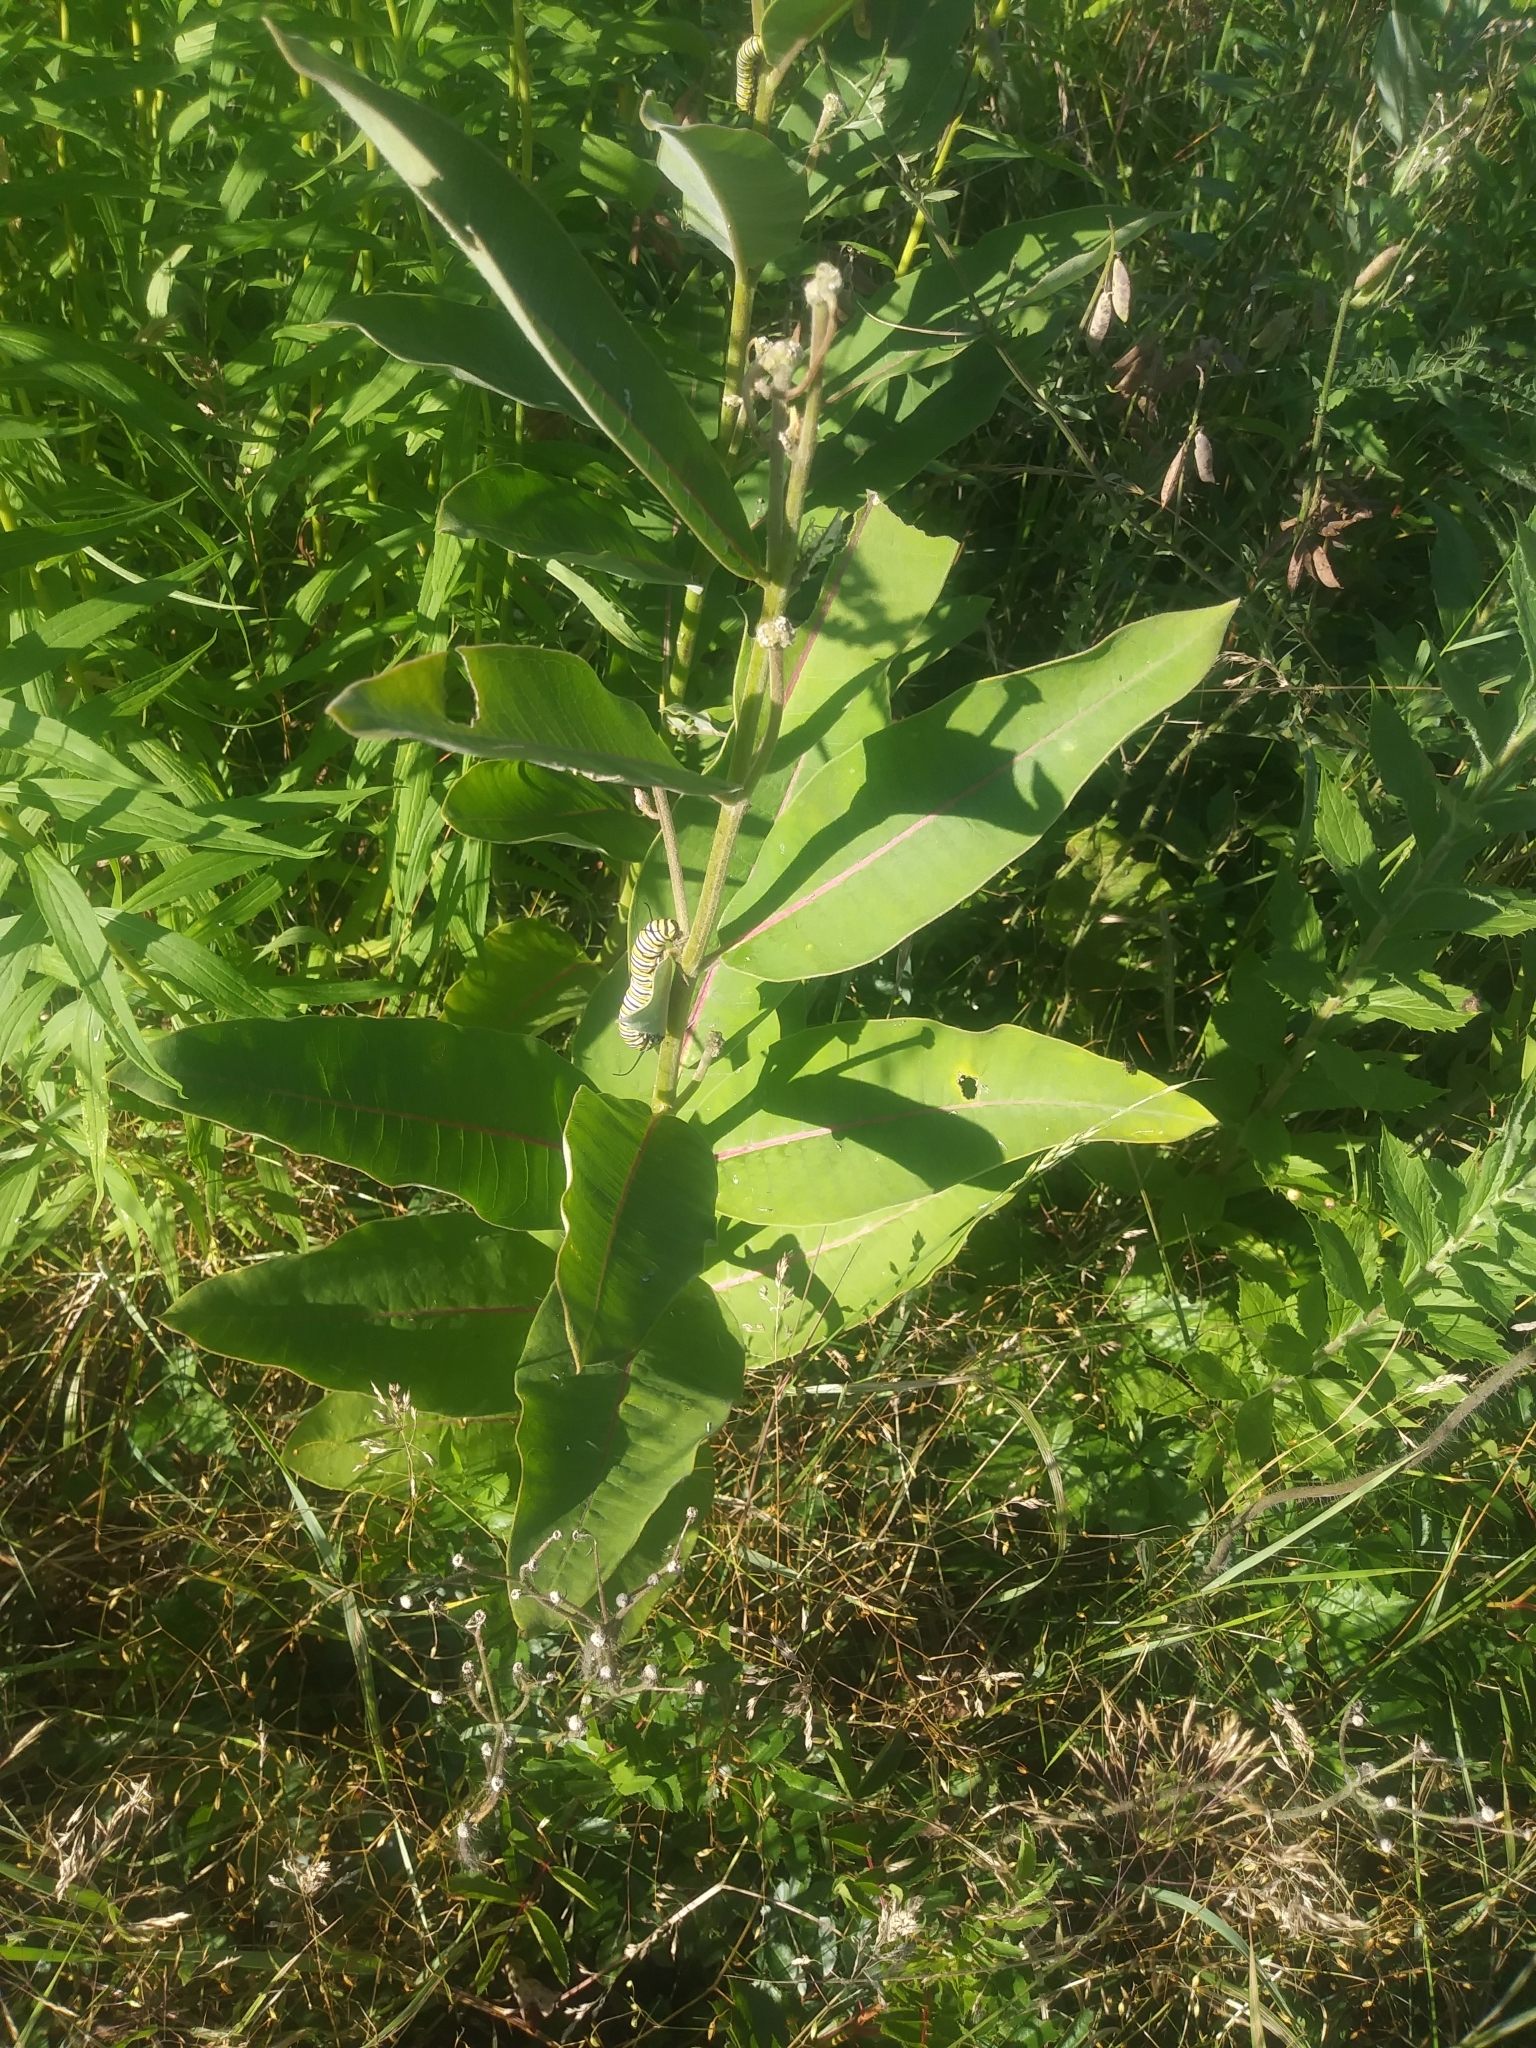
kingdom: Plantae
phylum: Tracheophyta
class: Magnoliopsida
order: Gentianales
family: Apocynaceae
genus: Asclepias
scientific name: Asclepias syriaca
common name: Common milkweed
